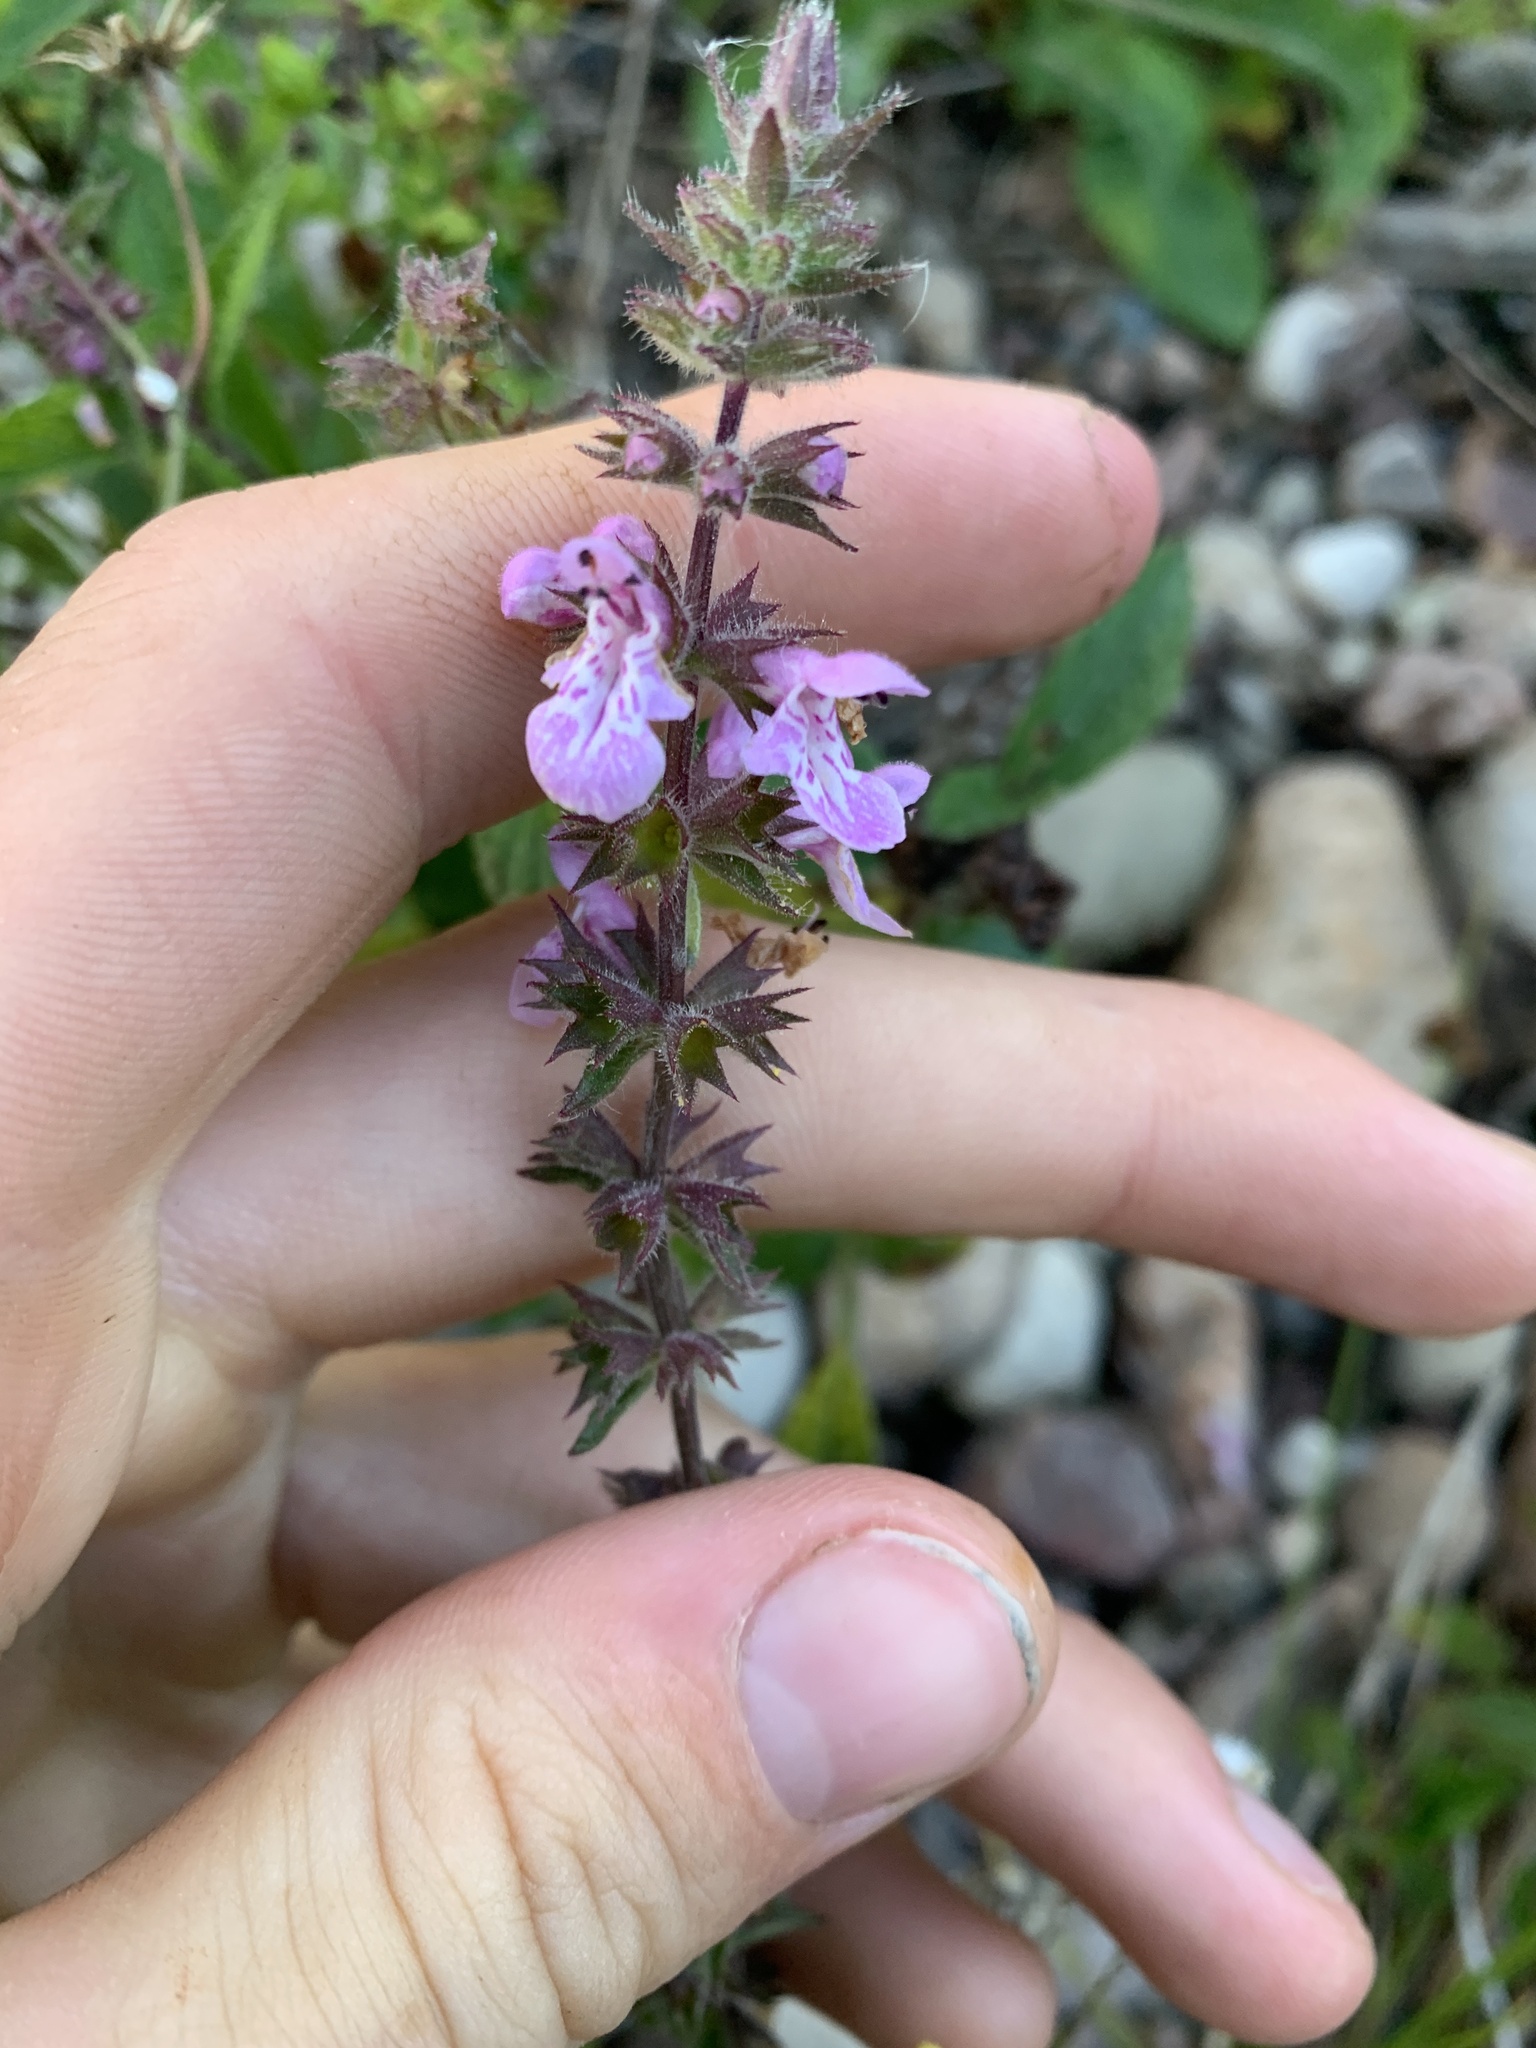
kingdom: Plantae
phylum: Tracheophyta
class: Magnoliopsida
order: Lamiales
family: Lamiaceae
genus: Stachys
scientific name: Stachys pilosa
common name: Hairy hedge-nettle
